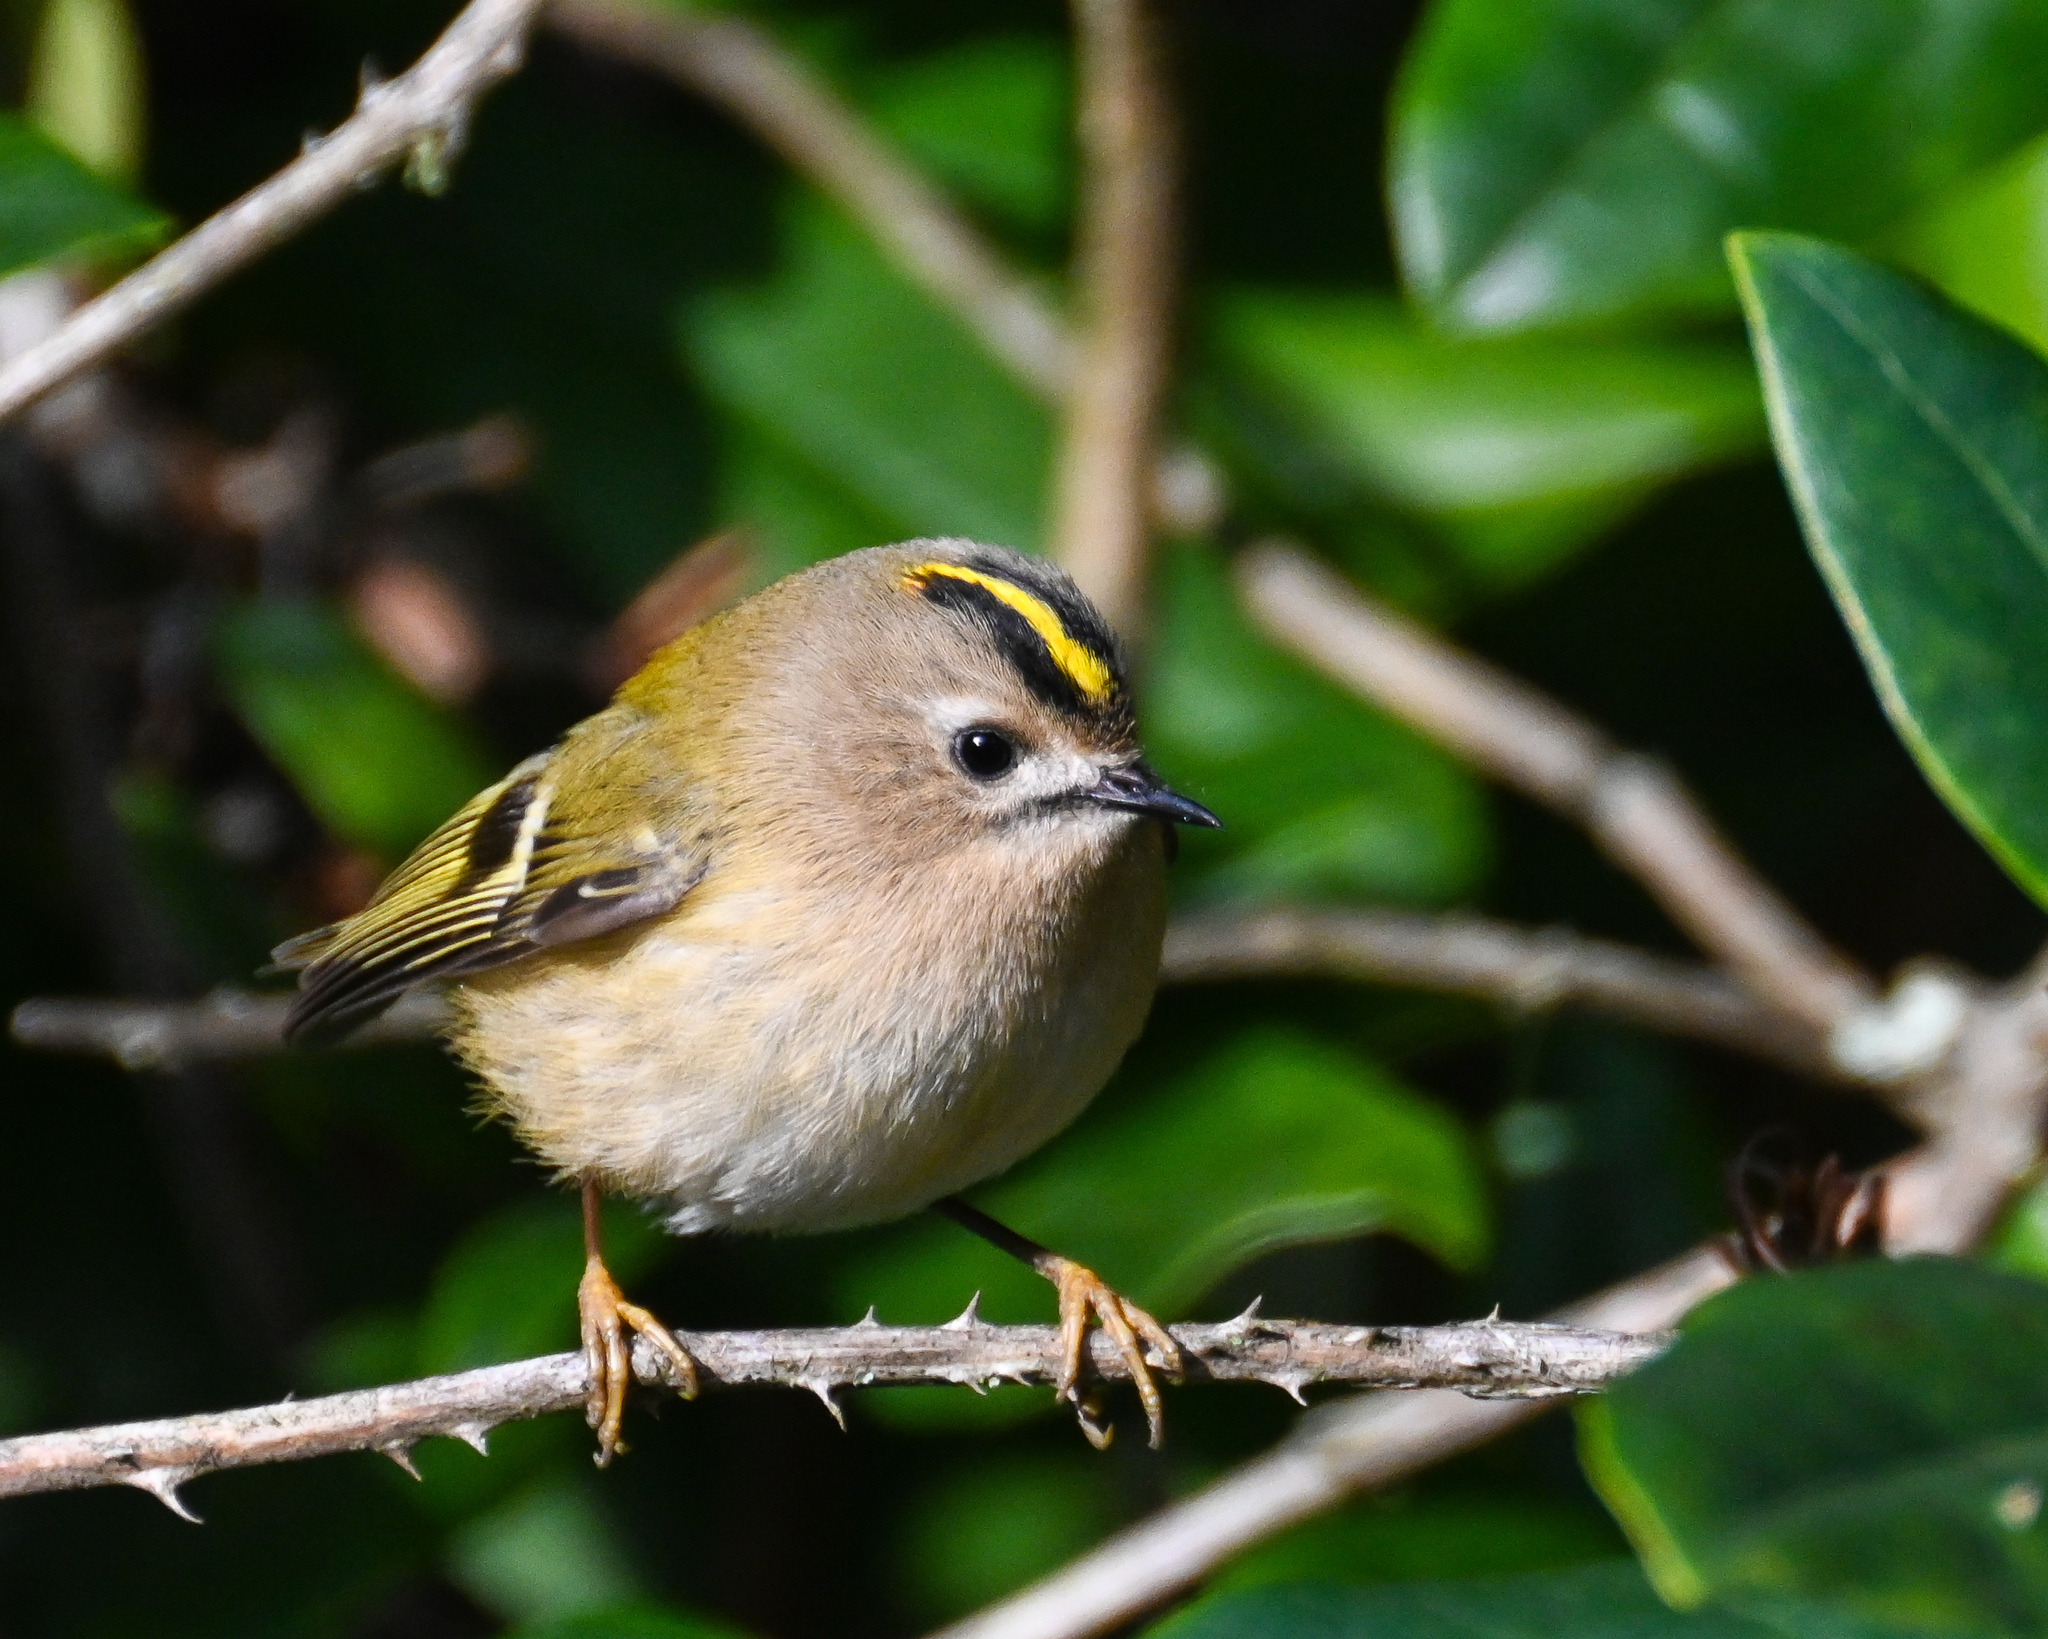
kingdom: Animalia
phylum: Chordata
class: Aves
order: Passeriformes
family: Regulidae
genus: Regulus
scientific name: Regulus regulus
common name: Goldcrest
